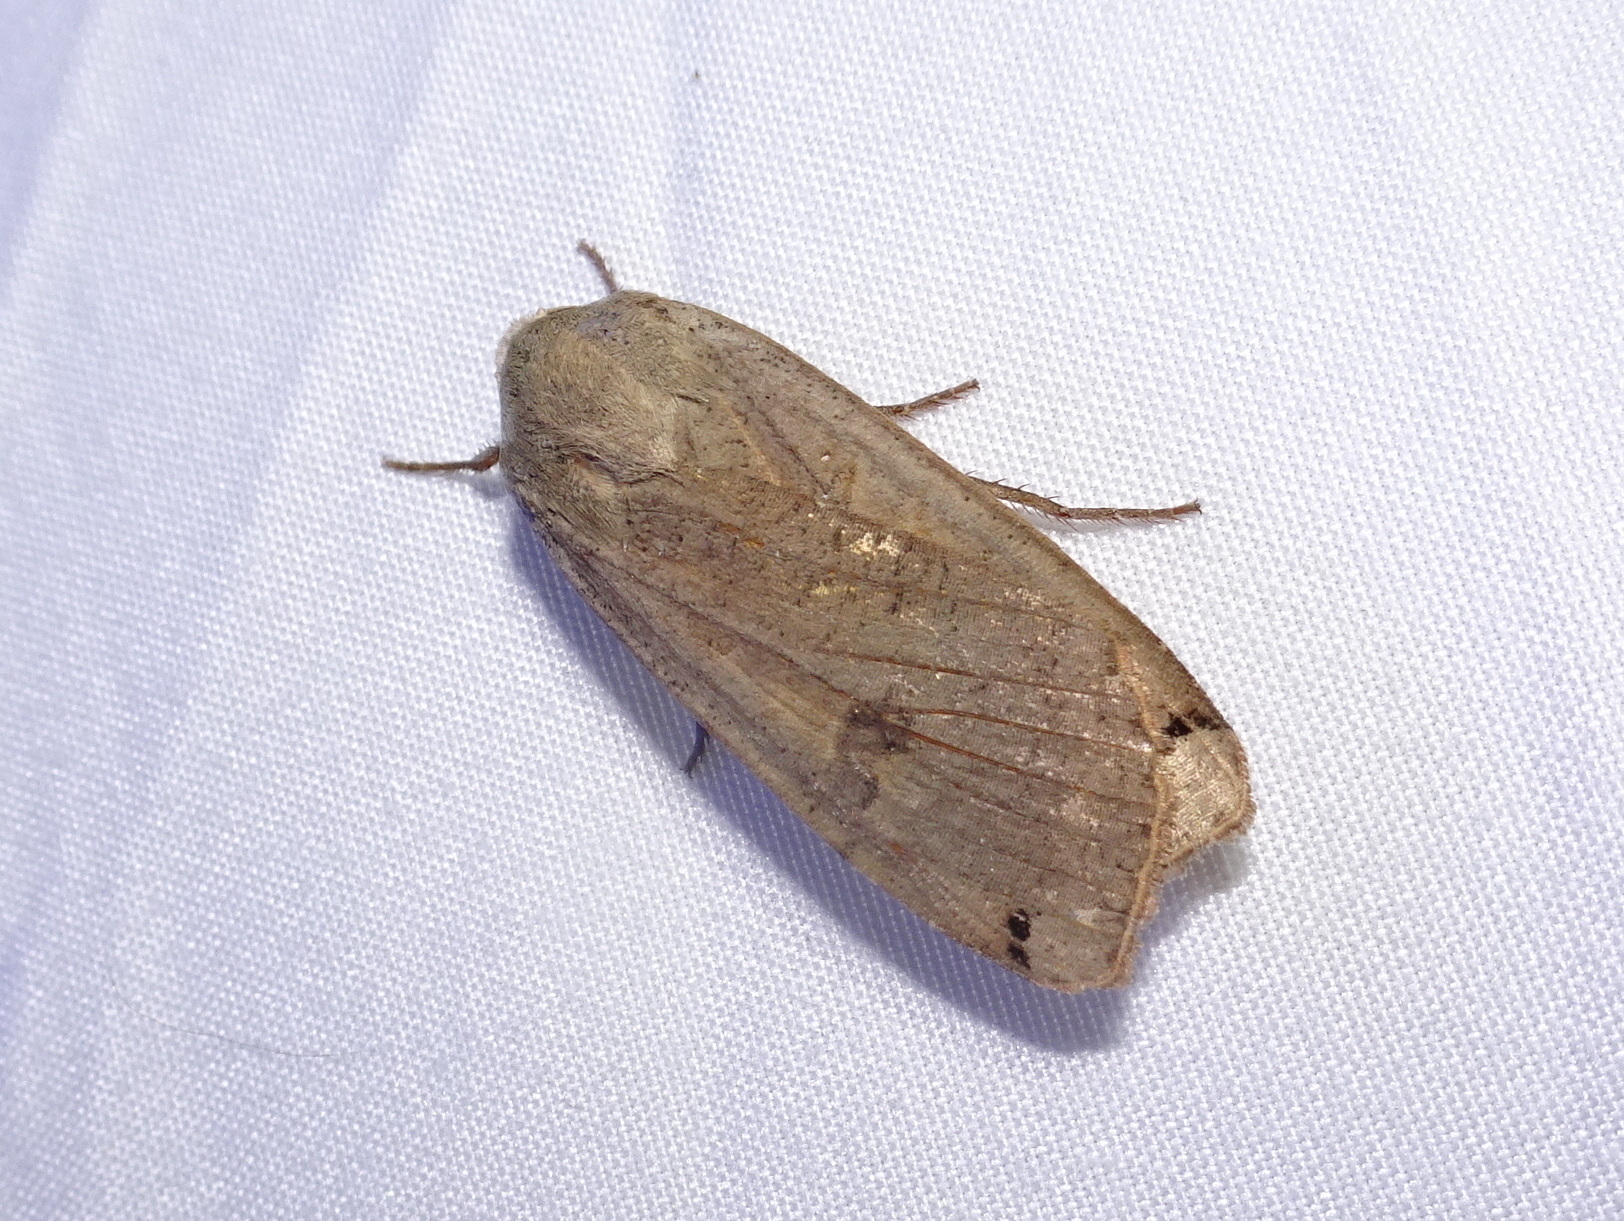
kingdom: Animalia
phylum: Arthropoda
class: Insecta
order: Lepidoptera
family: Noctuidae
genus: Noctua
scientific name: Noctua pronuba
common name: Large yellow underwing
